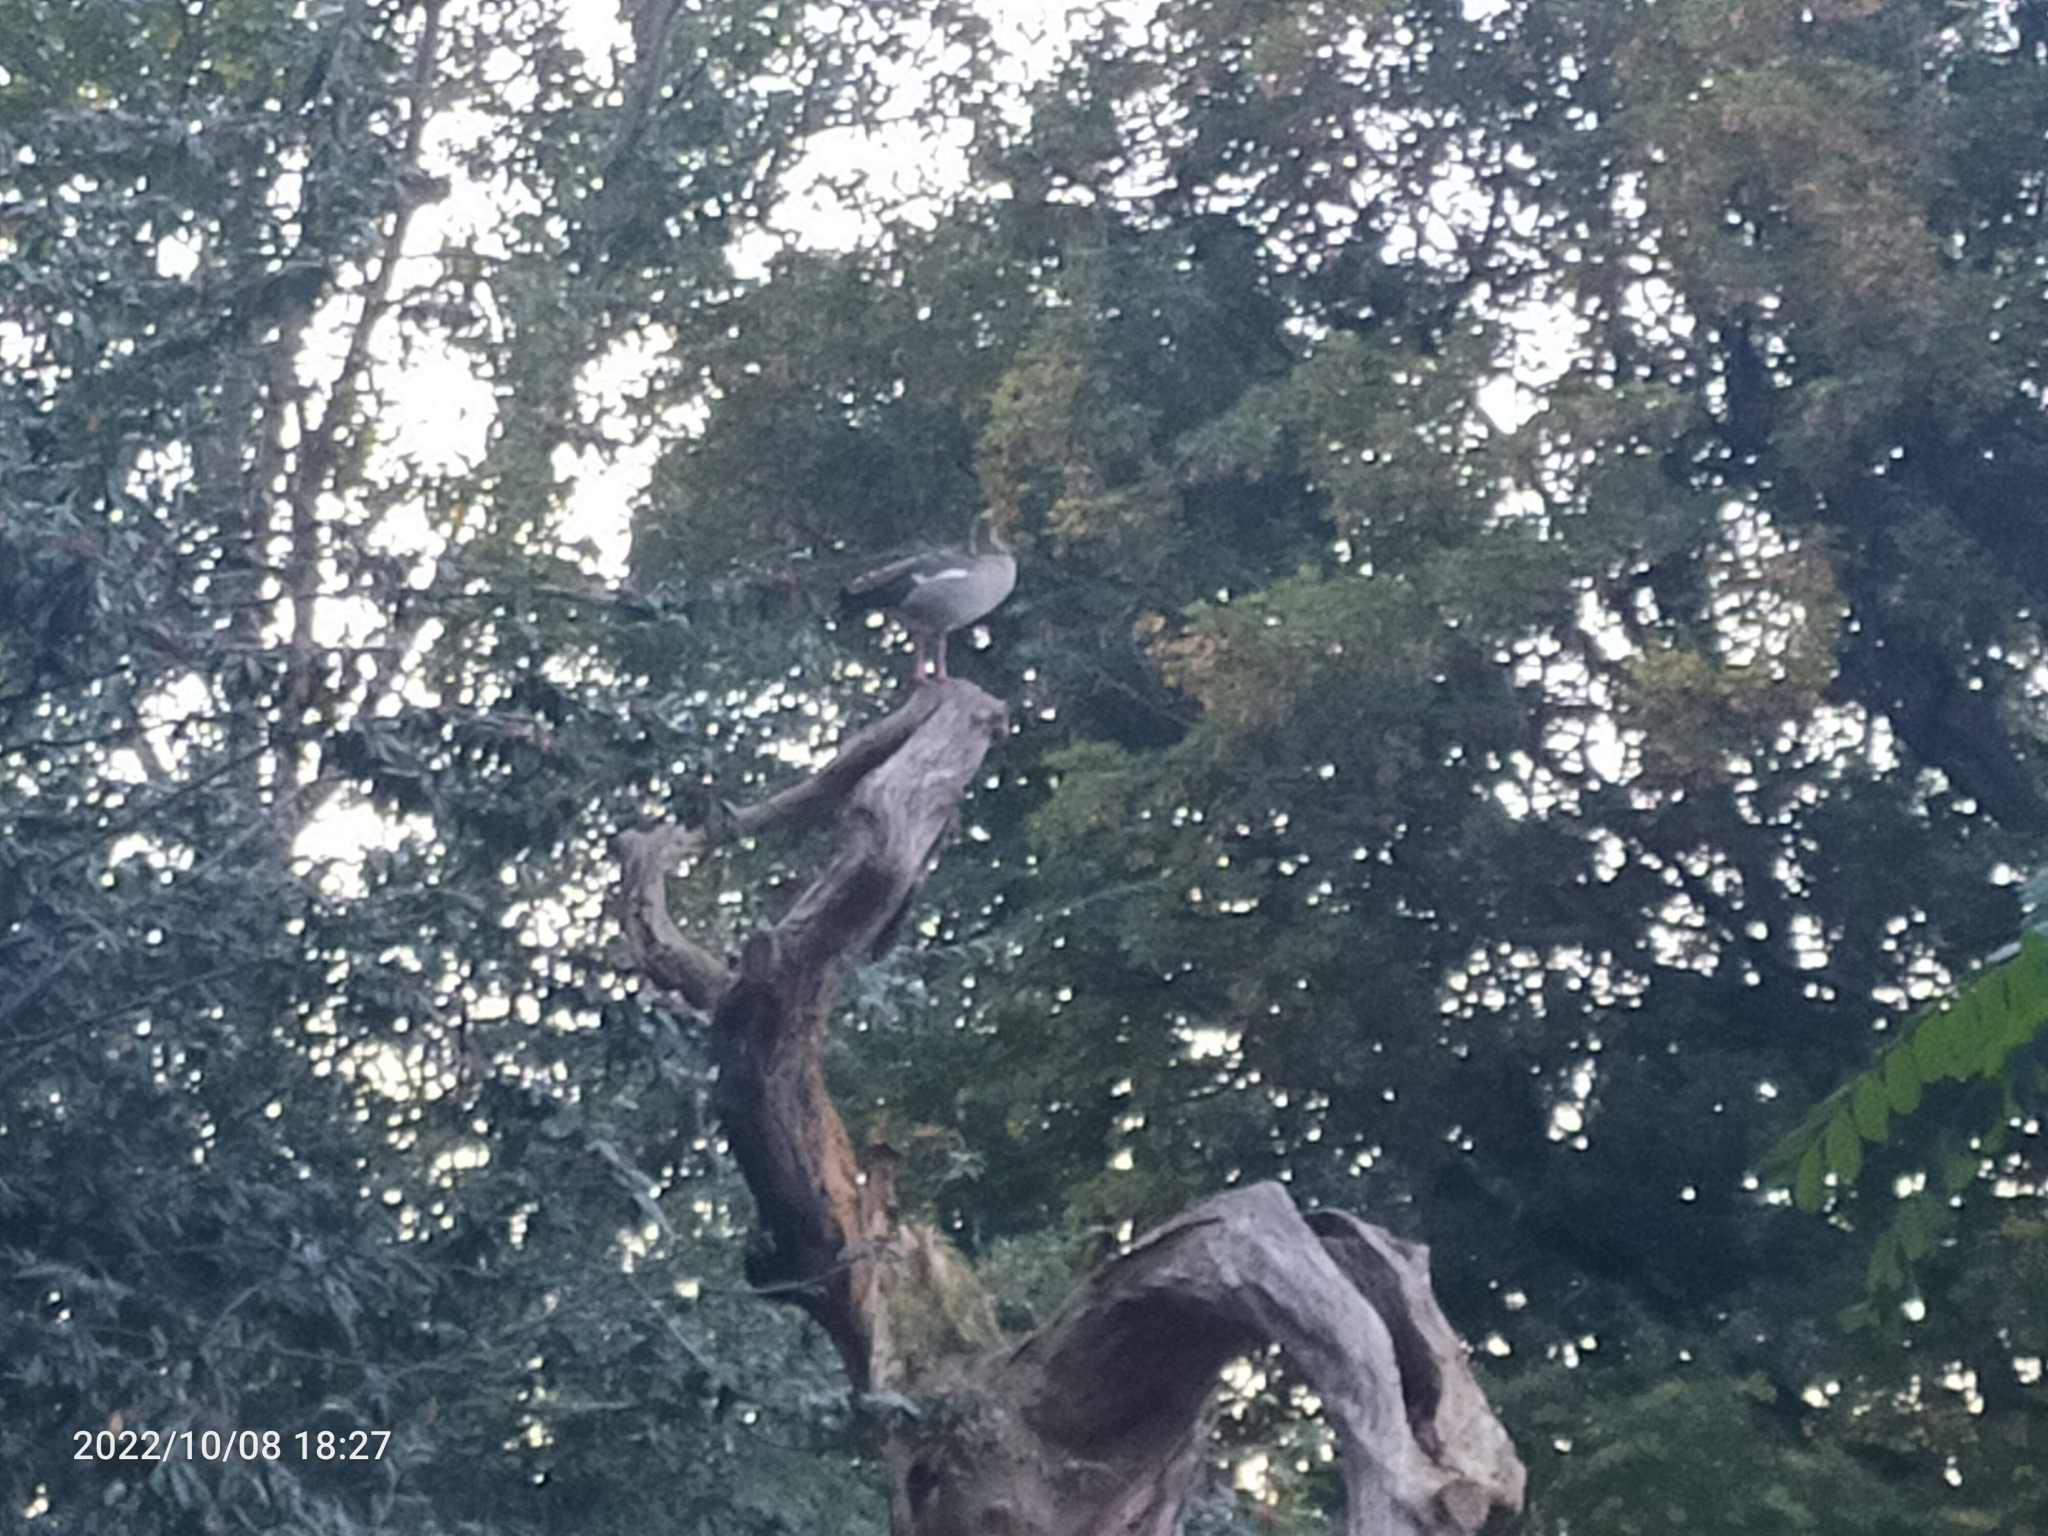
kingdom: Animalia
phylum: Chordata
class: Aves
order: Anseriformes
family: Anatidae
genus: Alopochen
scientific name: Alopochen aegyptiaca
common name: Egyptian goose
